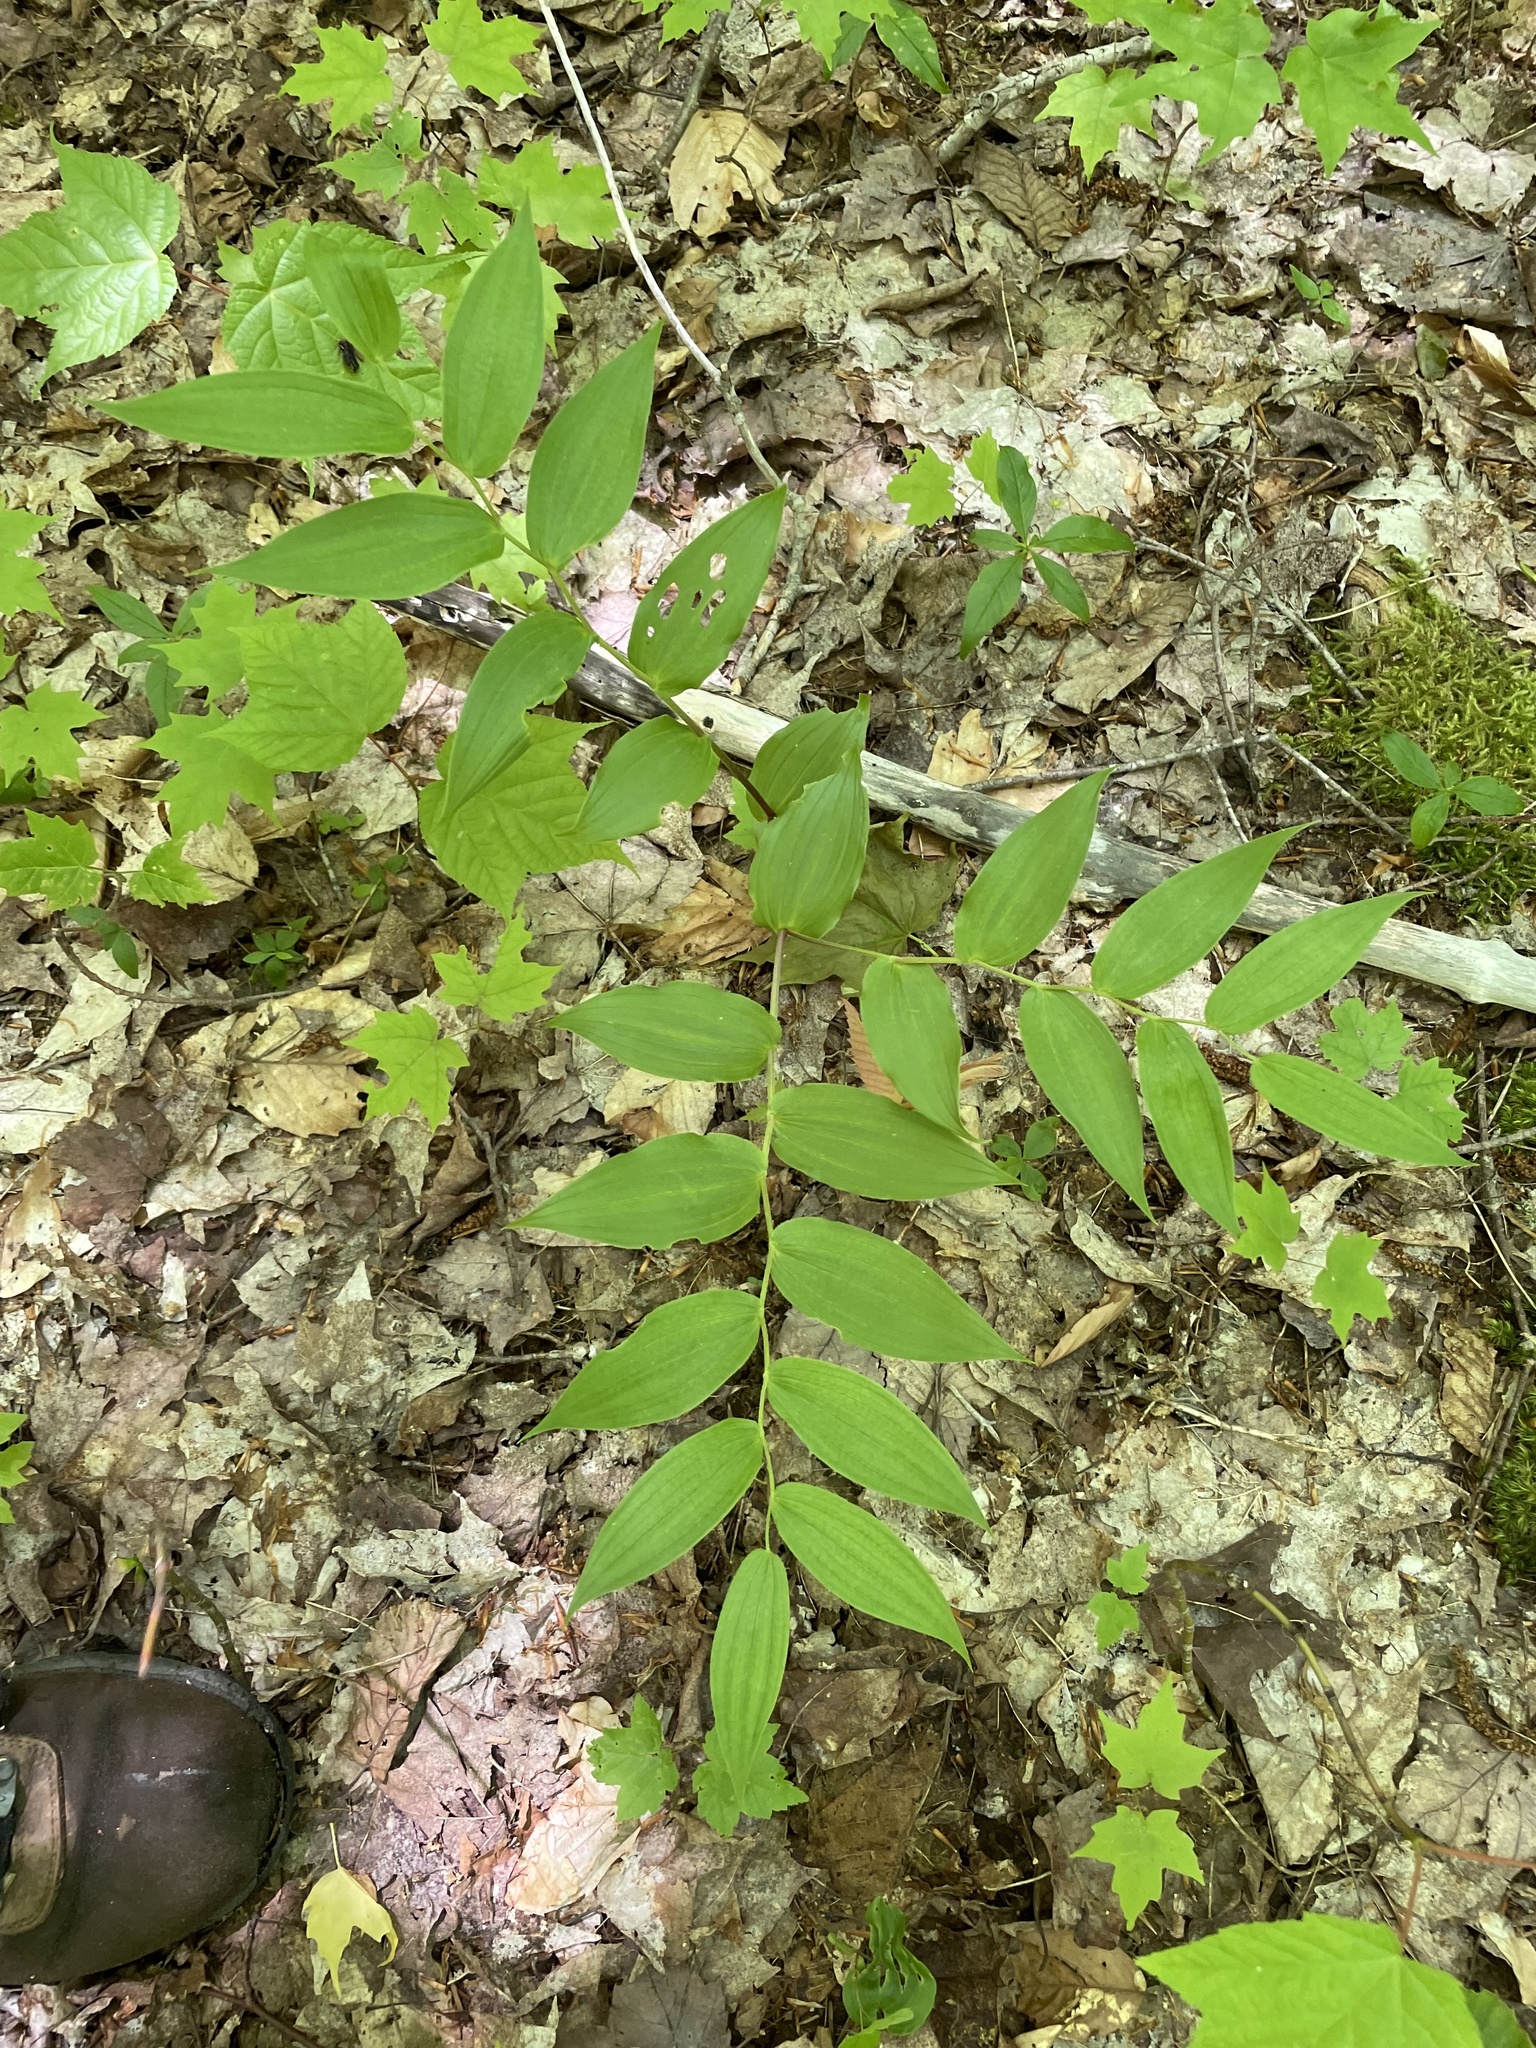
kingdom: Plantae
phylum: Tracheophyta
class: Liliopsida
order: Liliales
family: Liliaceae
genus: Streptopus
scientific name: Streptopus lanceolatus
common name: Rose mandarin
